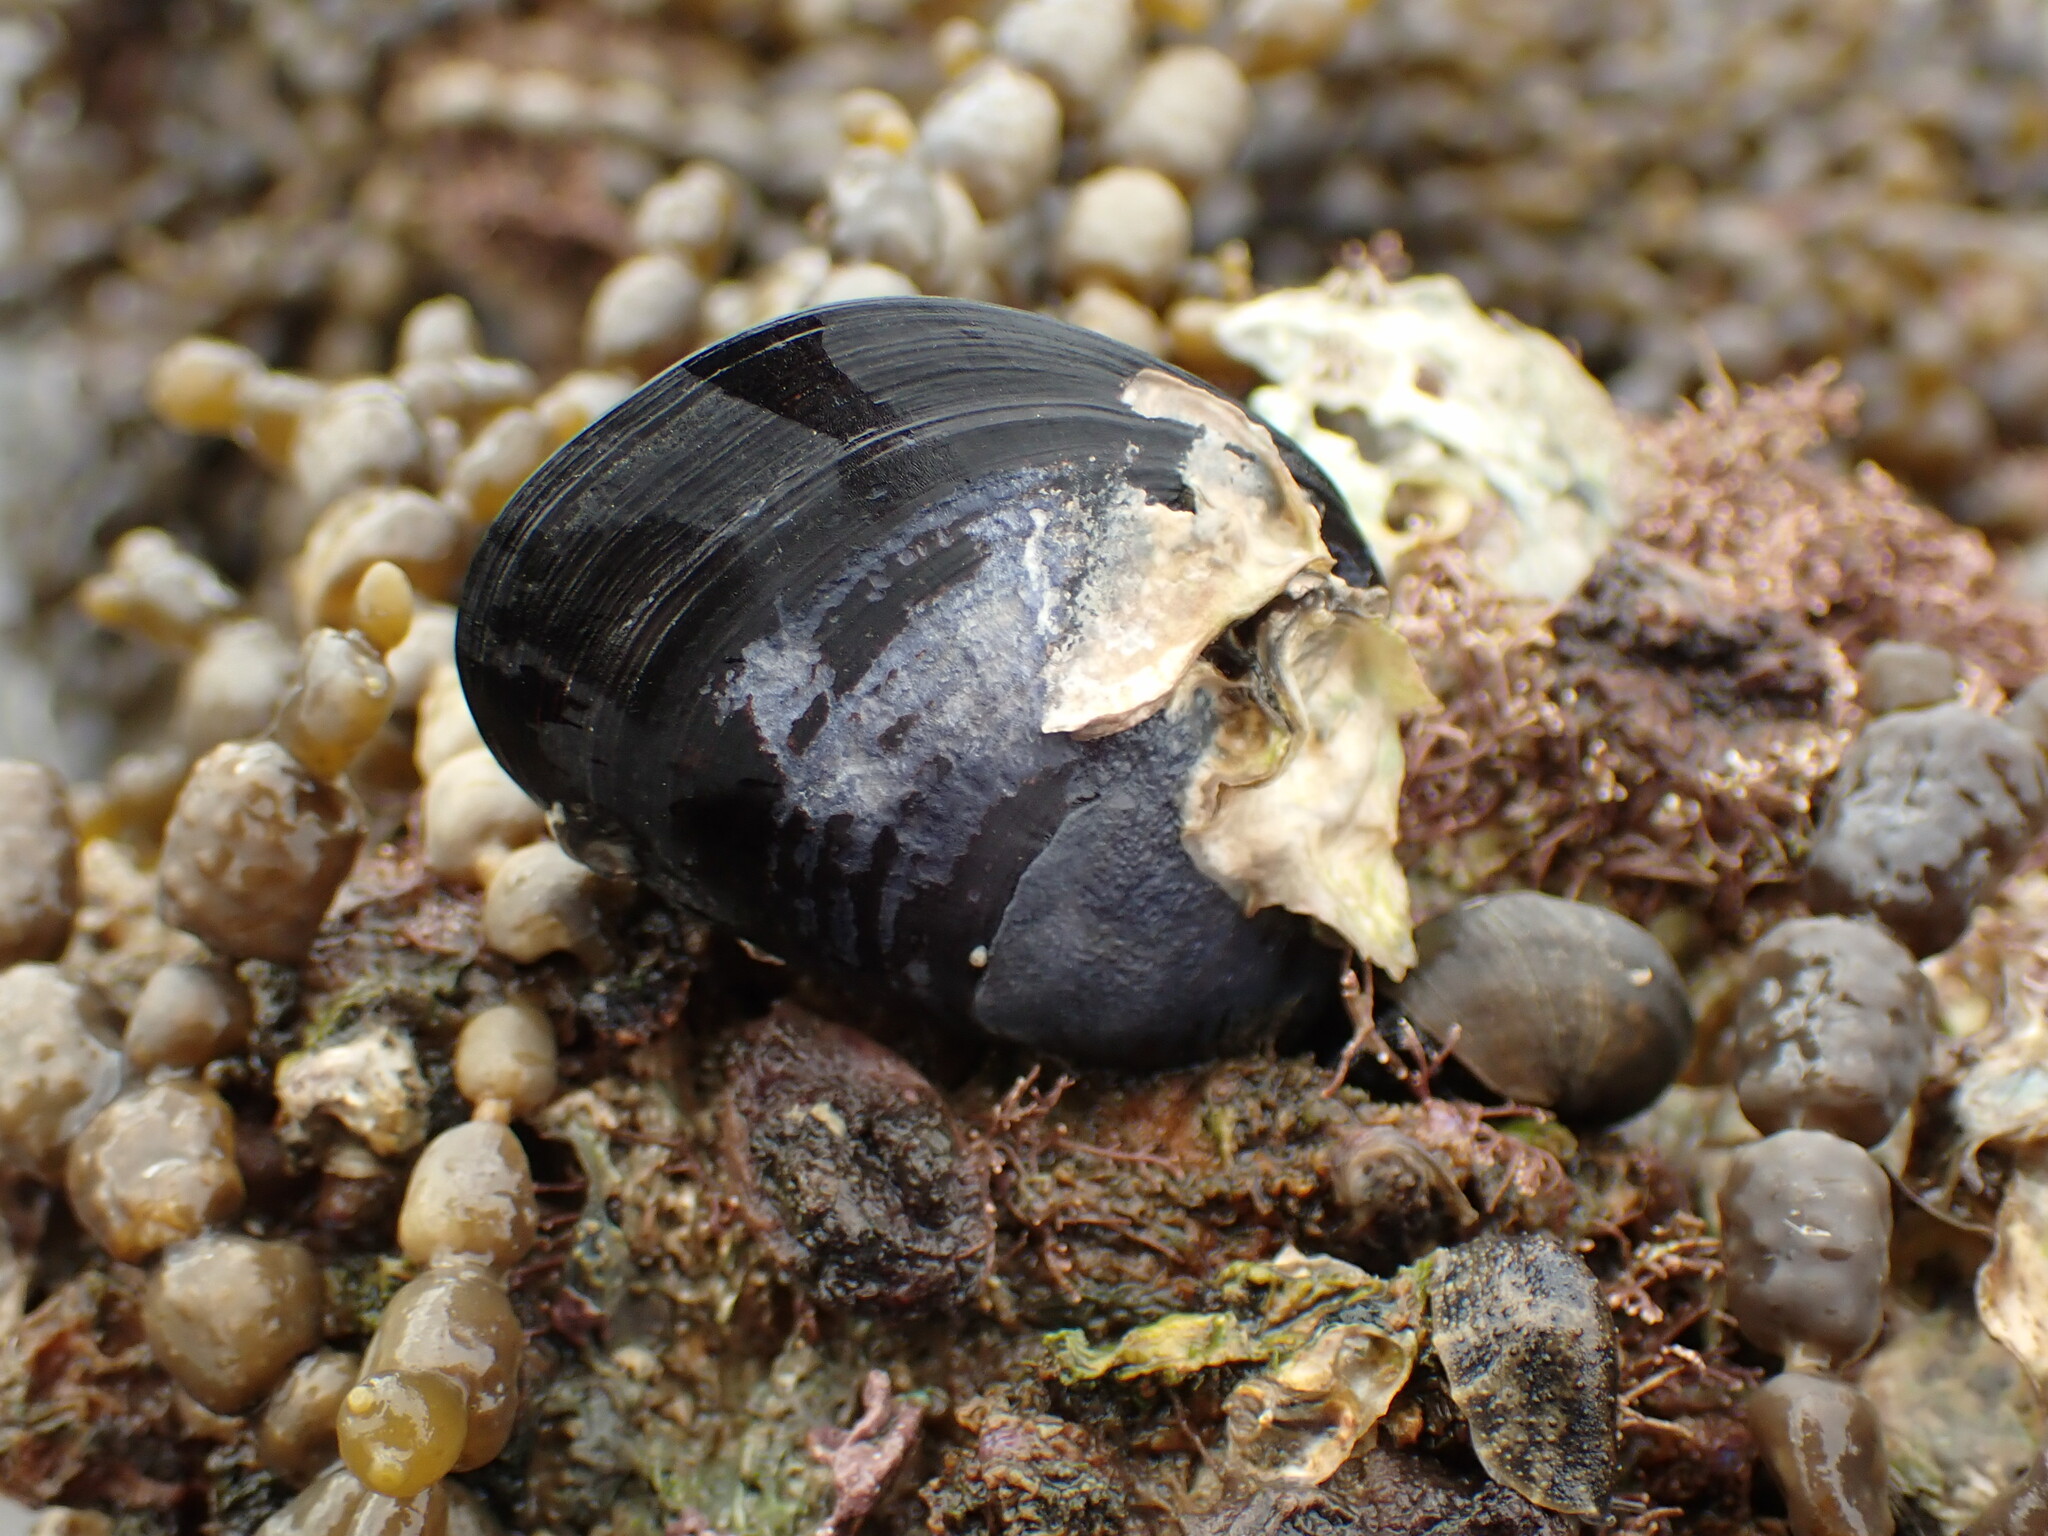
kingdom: Animalia
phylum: Mollusca
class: Bivalvia
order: Mytilida
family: Mytilidae
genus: Mytilus
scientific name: Mytilus planulatus
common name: Australian mussel
